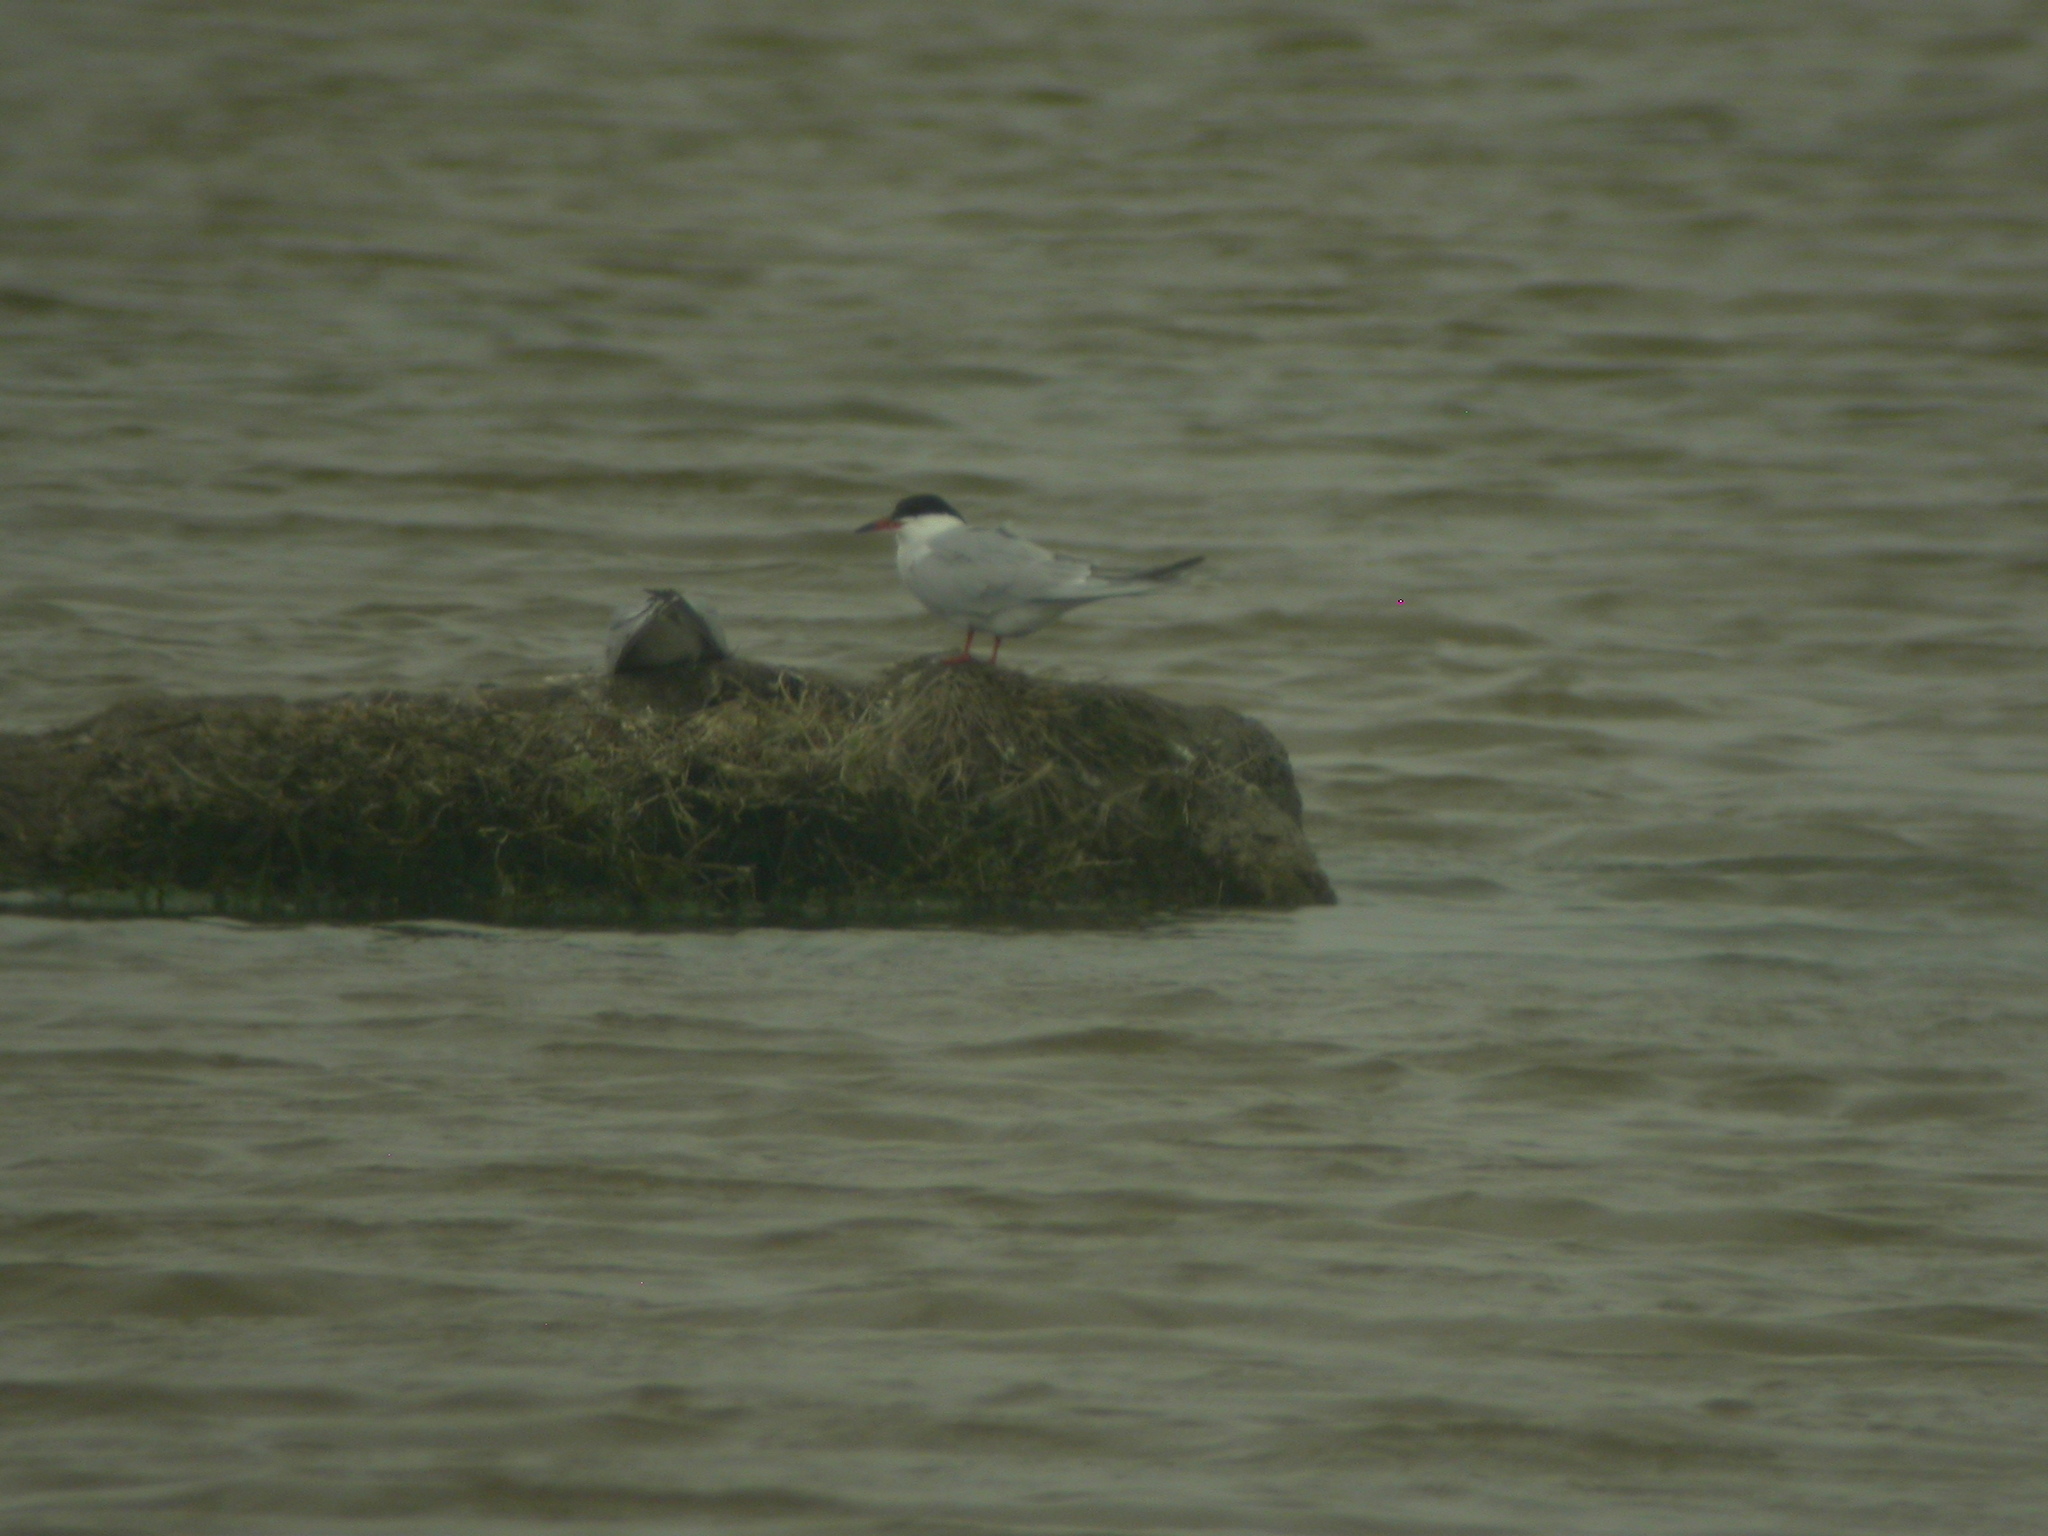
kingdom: Animalia
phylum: Chordata
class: Aves
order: Charadriiformes
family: Laridae
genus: Sterna
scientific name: Sterna hirundo
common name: Common tern
